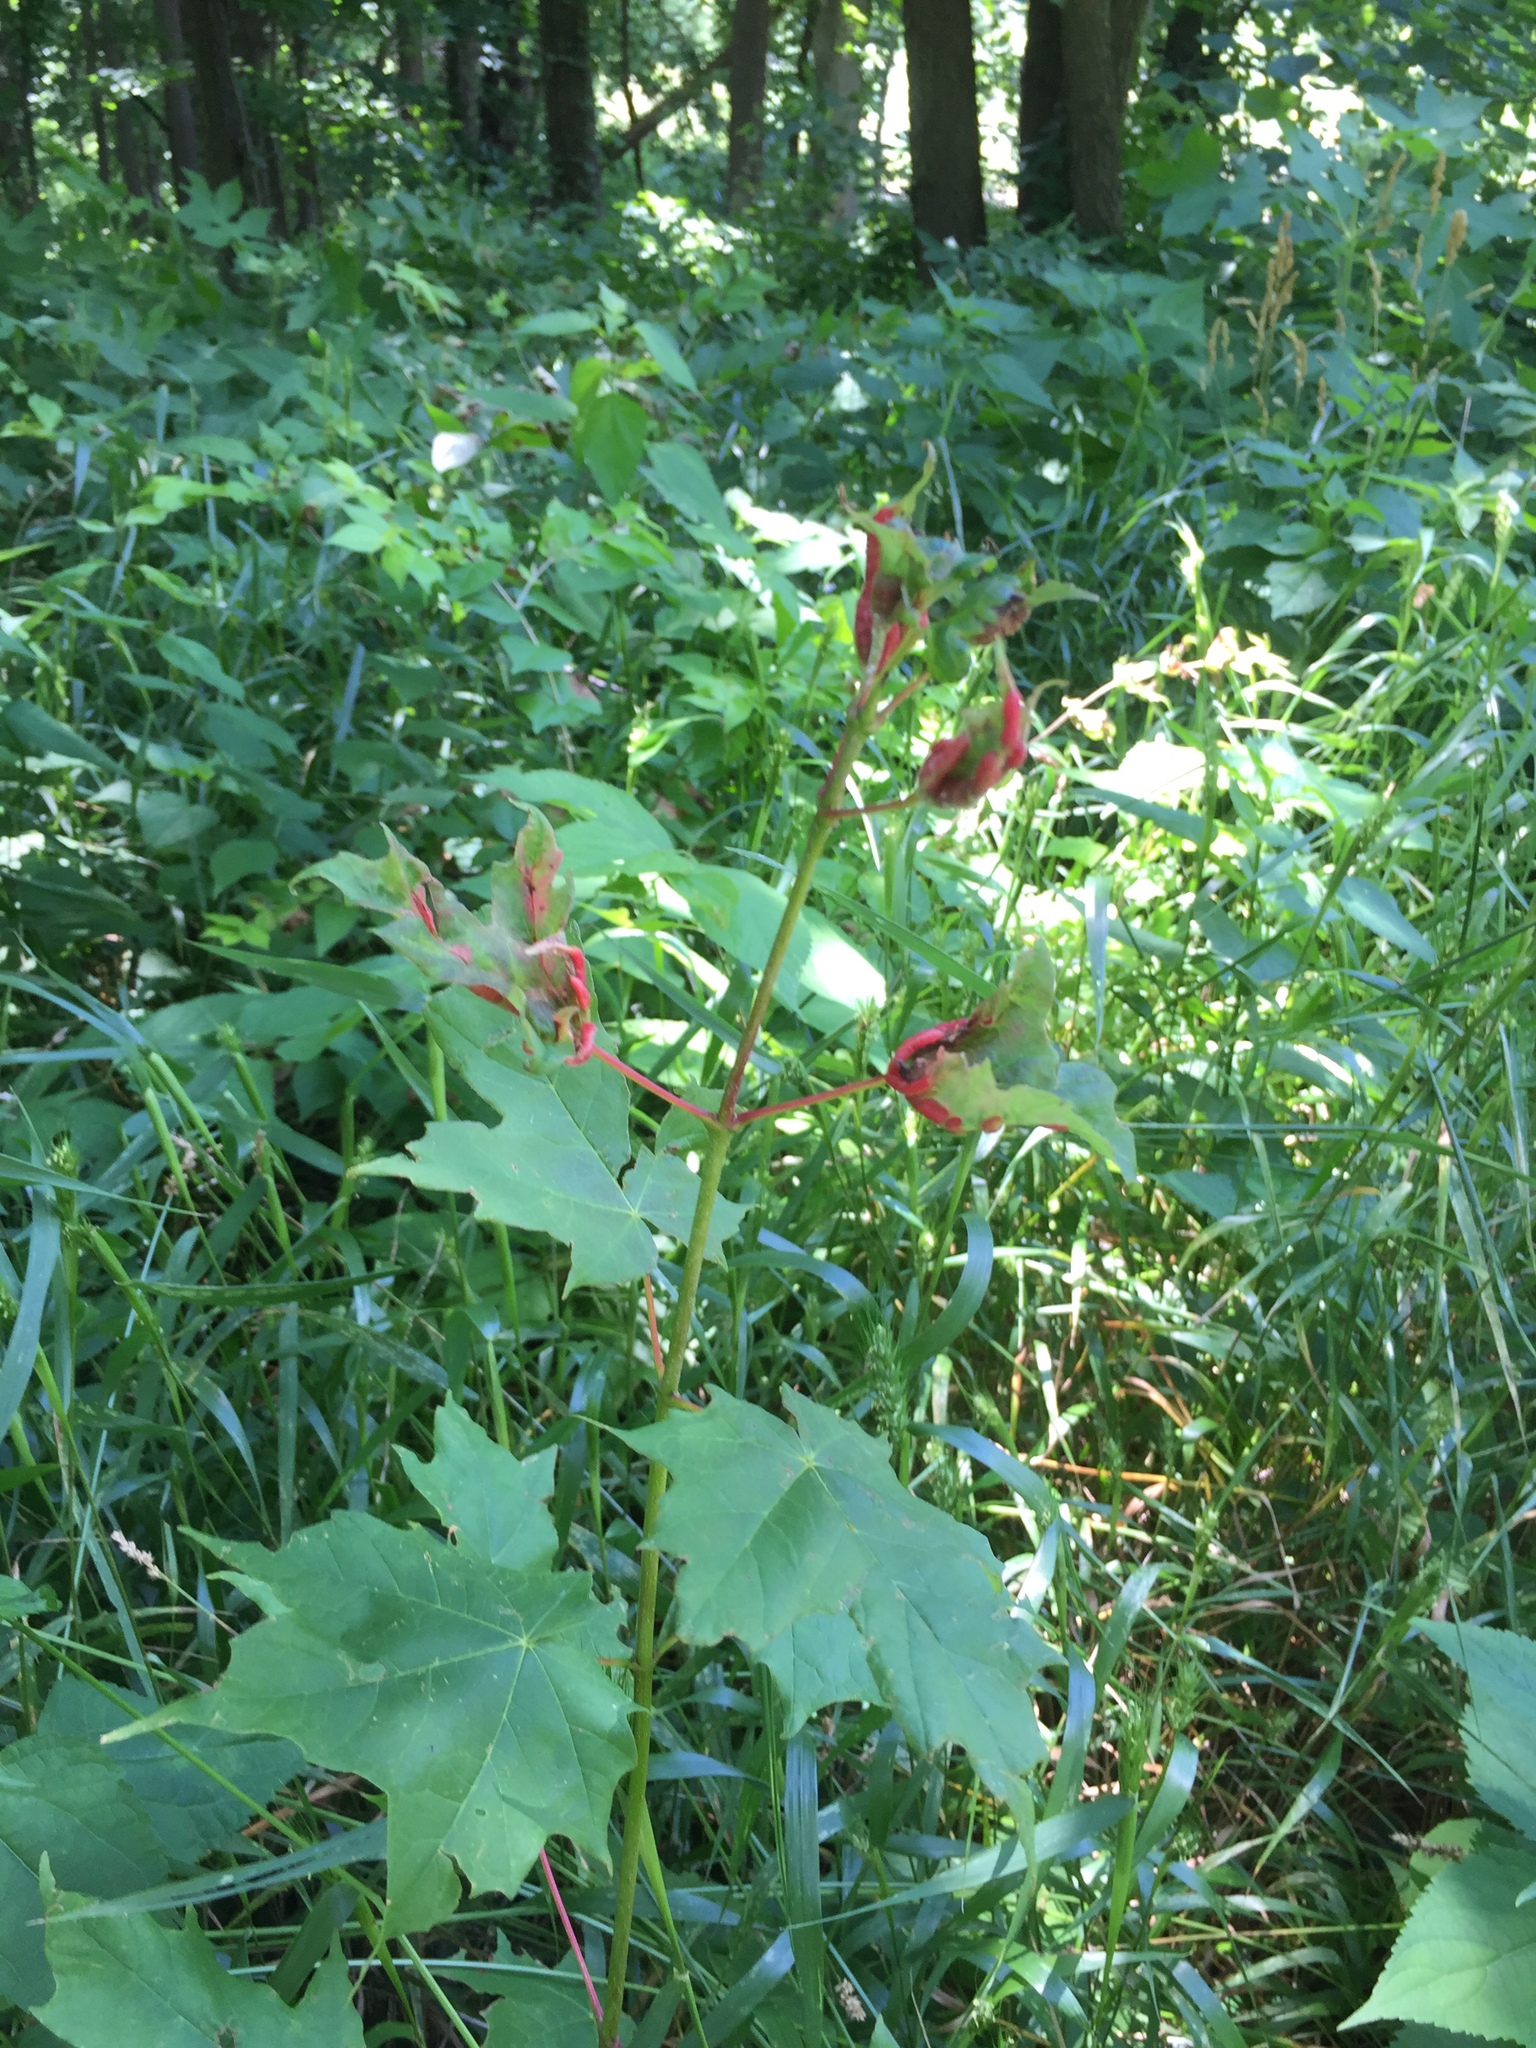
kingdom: Animalia
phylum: Arthropoda
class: Insecta
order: Diptera
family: Cecidomyiidae
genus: Dasineura
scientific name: Dasineura communis
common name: Gouty vein midge
